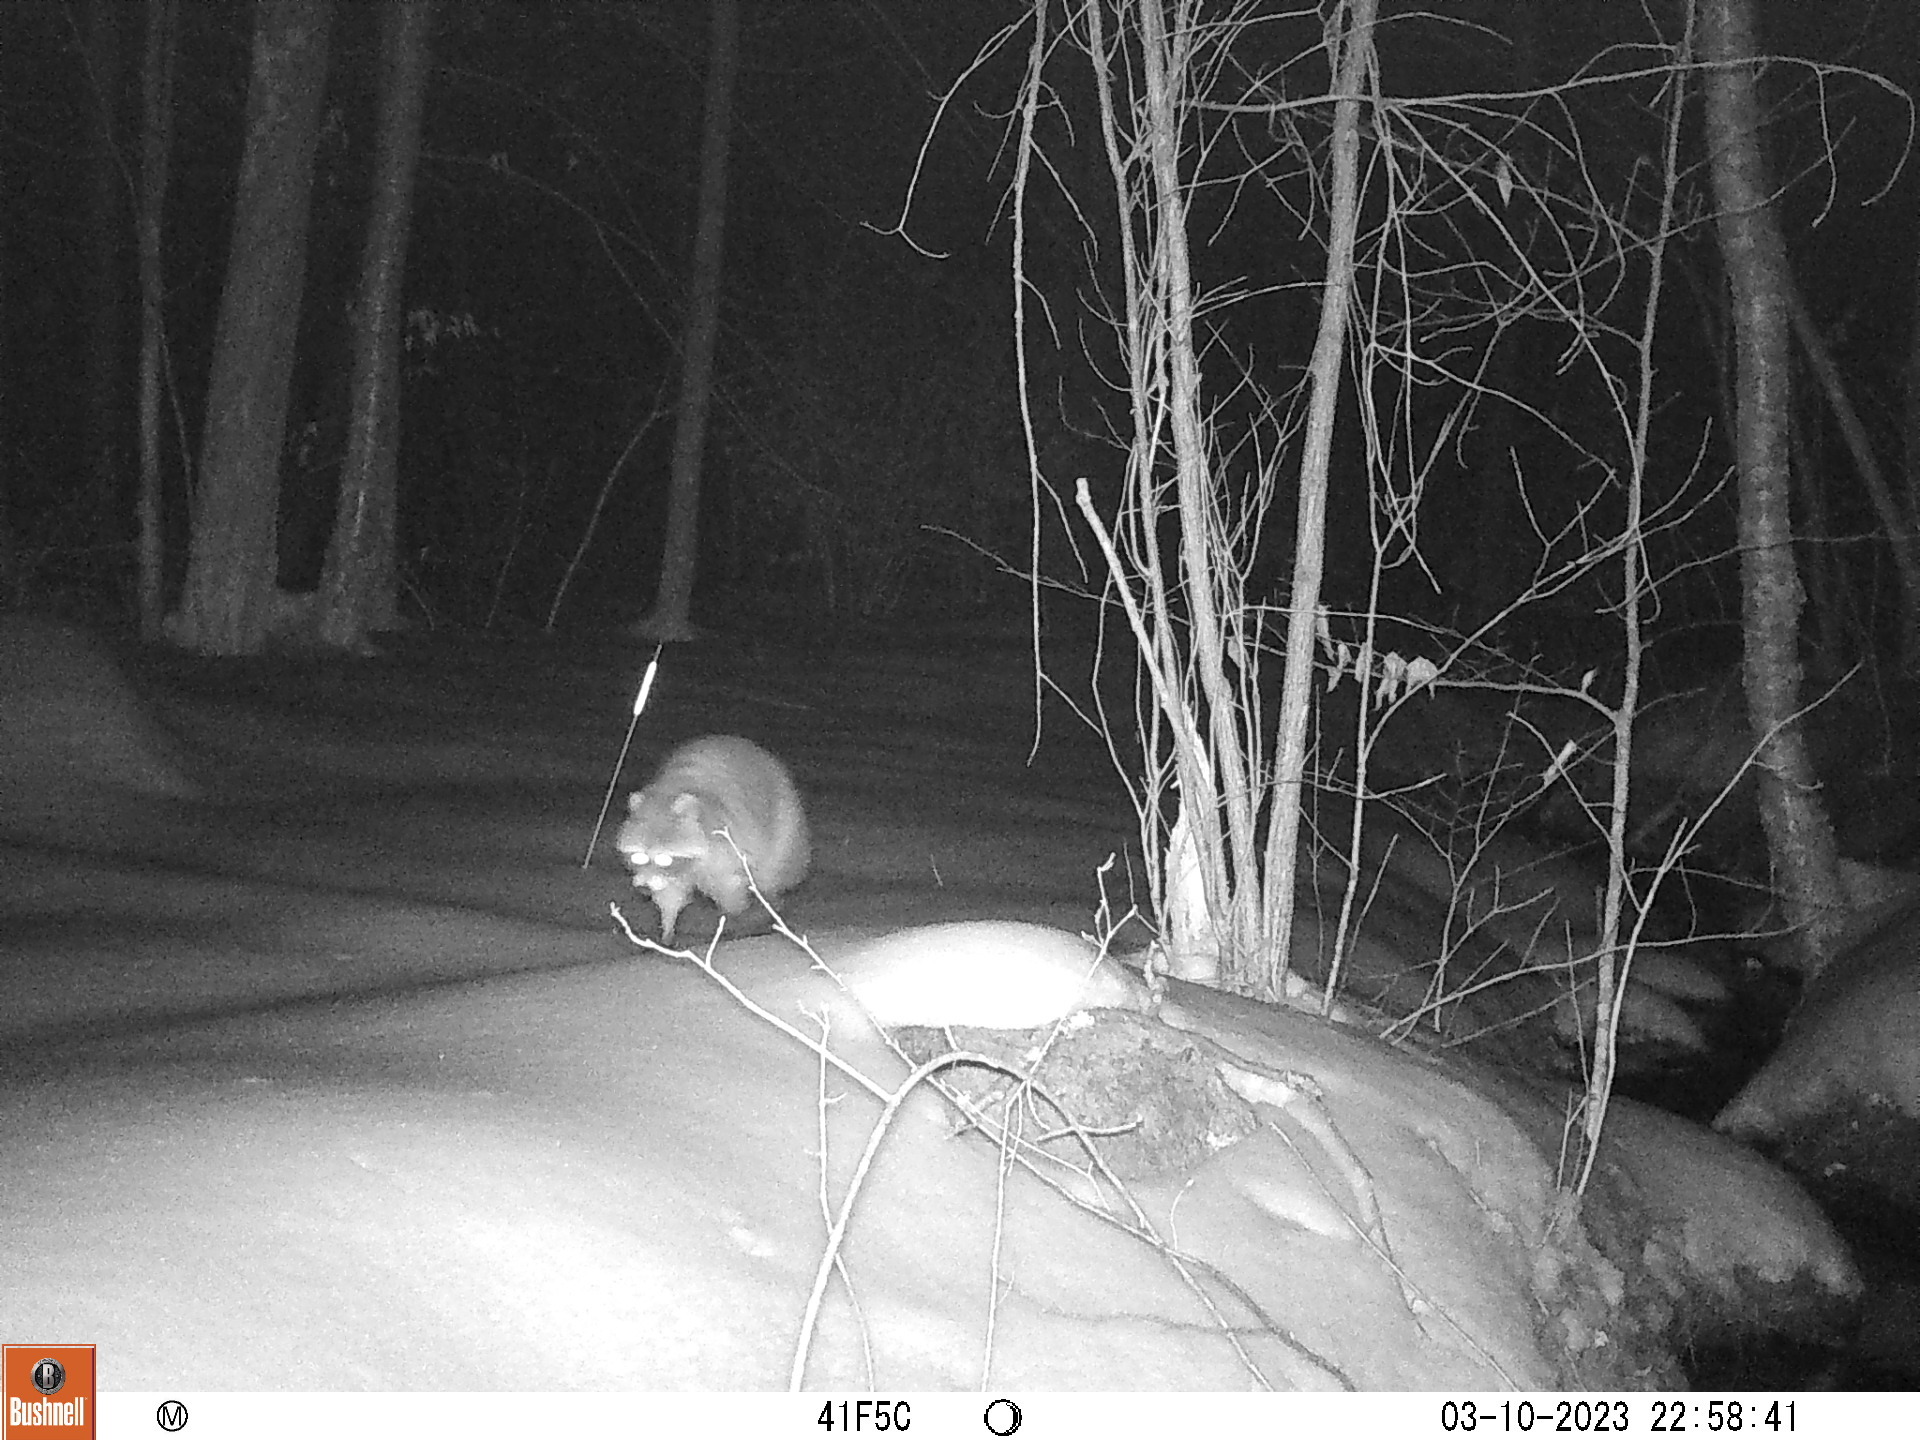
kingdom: Animalia
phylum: Chordata
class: Mammalia
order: Carnivora
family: Procyonidae
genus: Procyon
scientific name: Procyon lotor
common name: Raccoon
